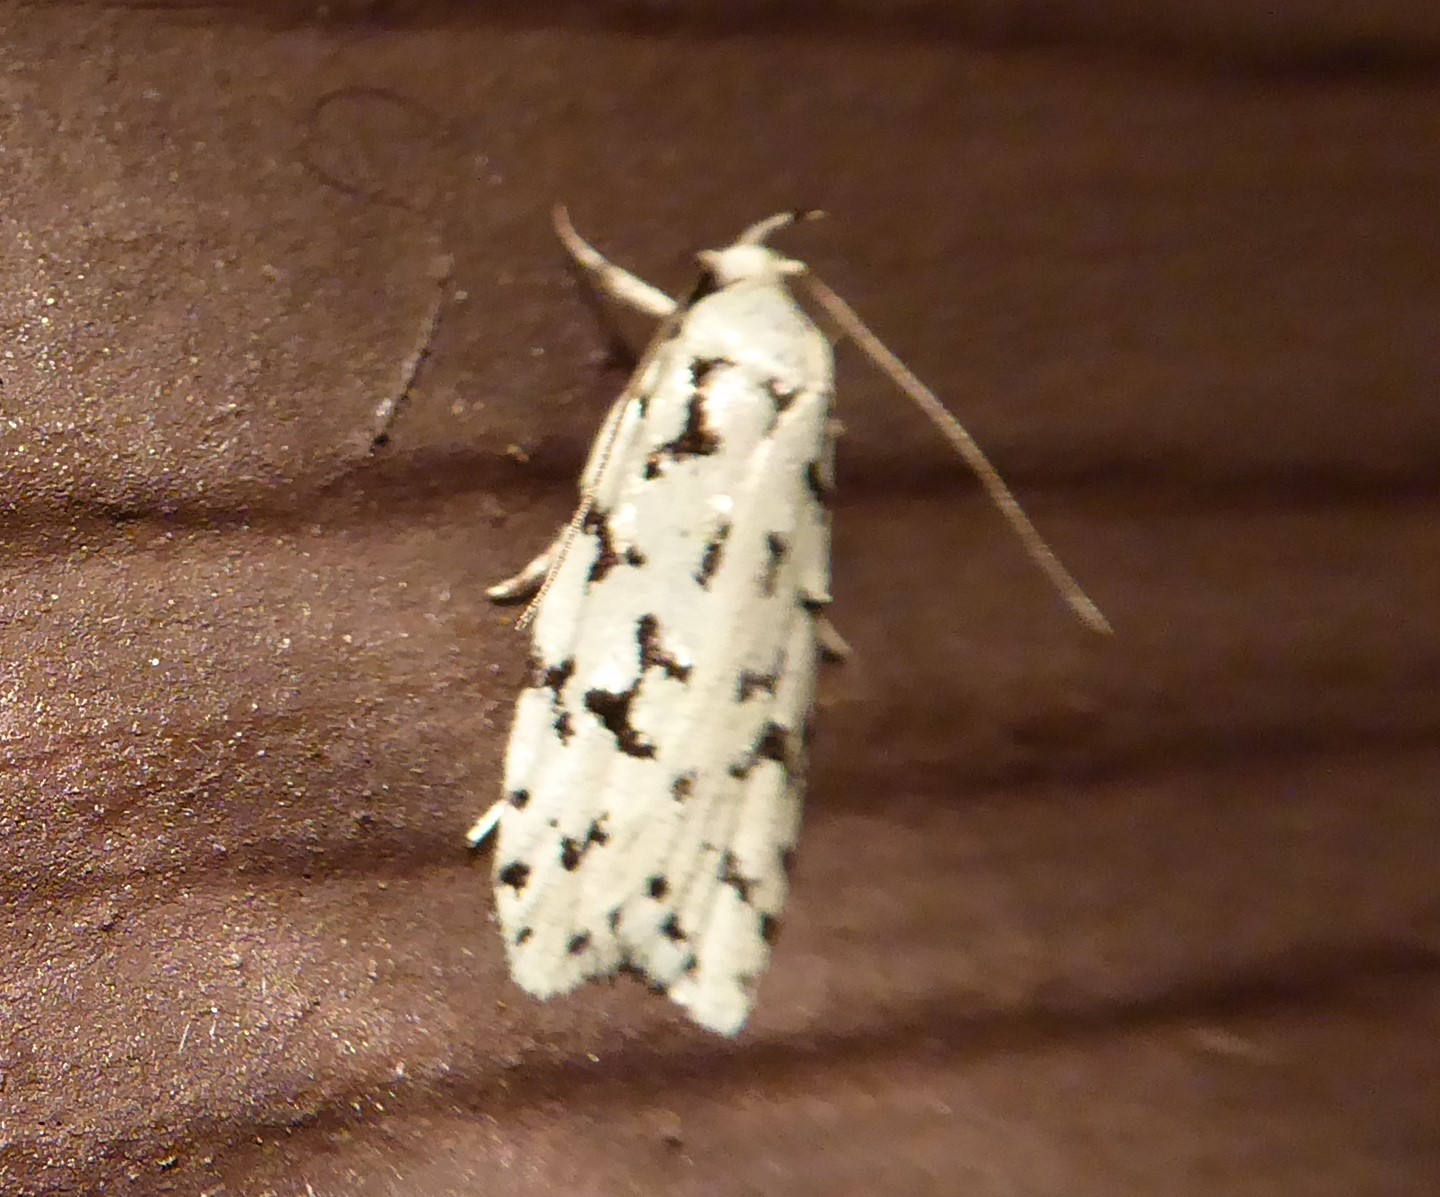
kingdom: Animalia
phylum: Arthropoda
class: Insecta
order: Lepidoptera
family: Oecophoridae
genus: Izatha
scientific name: Izatha huttoni
